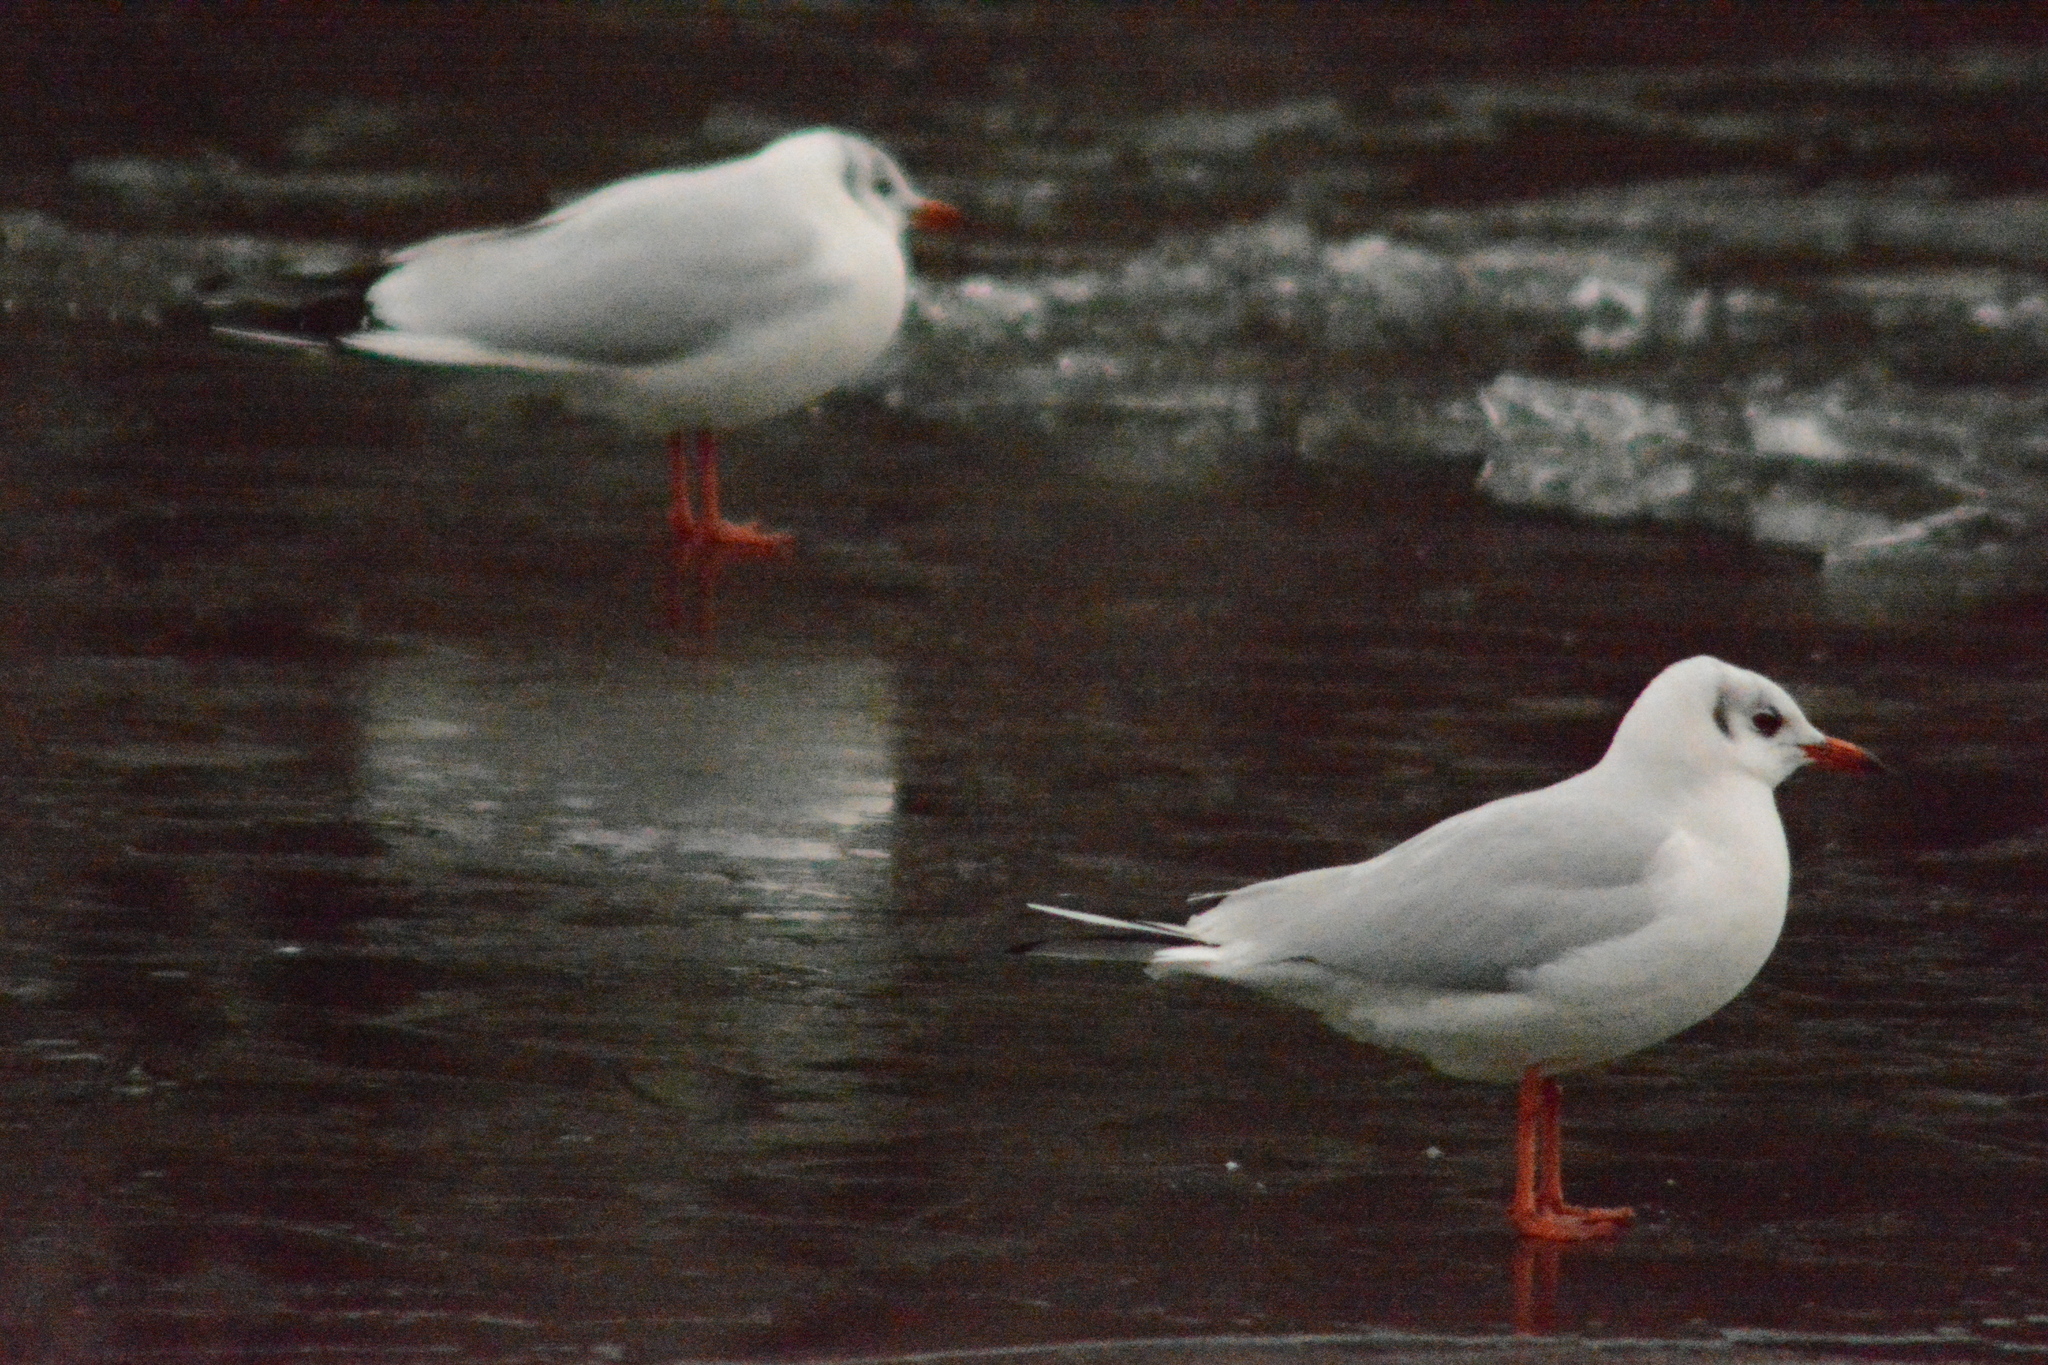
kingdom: Animalia
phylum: Chordata
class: Aves
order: Charadriiformes
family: Laridae
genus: Chroicocephalus
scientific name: Chroicocephalus ridibundus
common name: Black-headed gull
